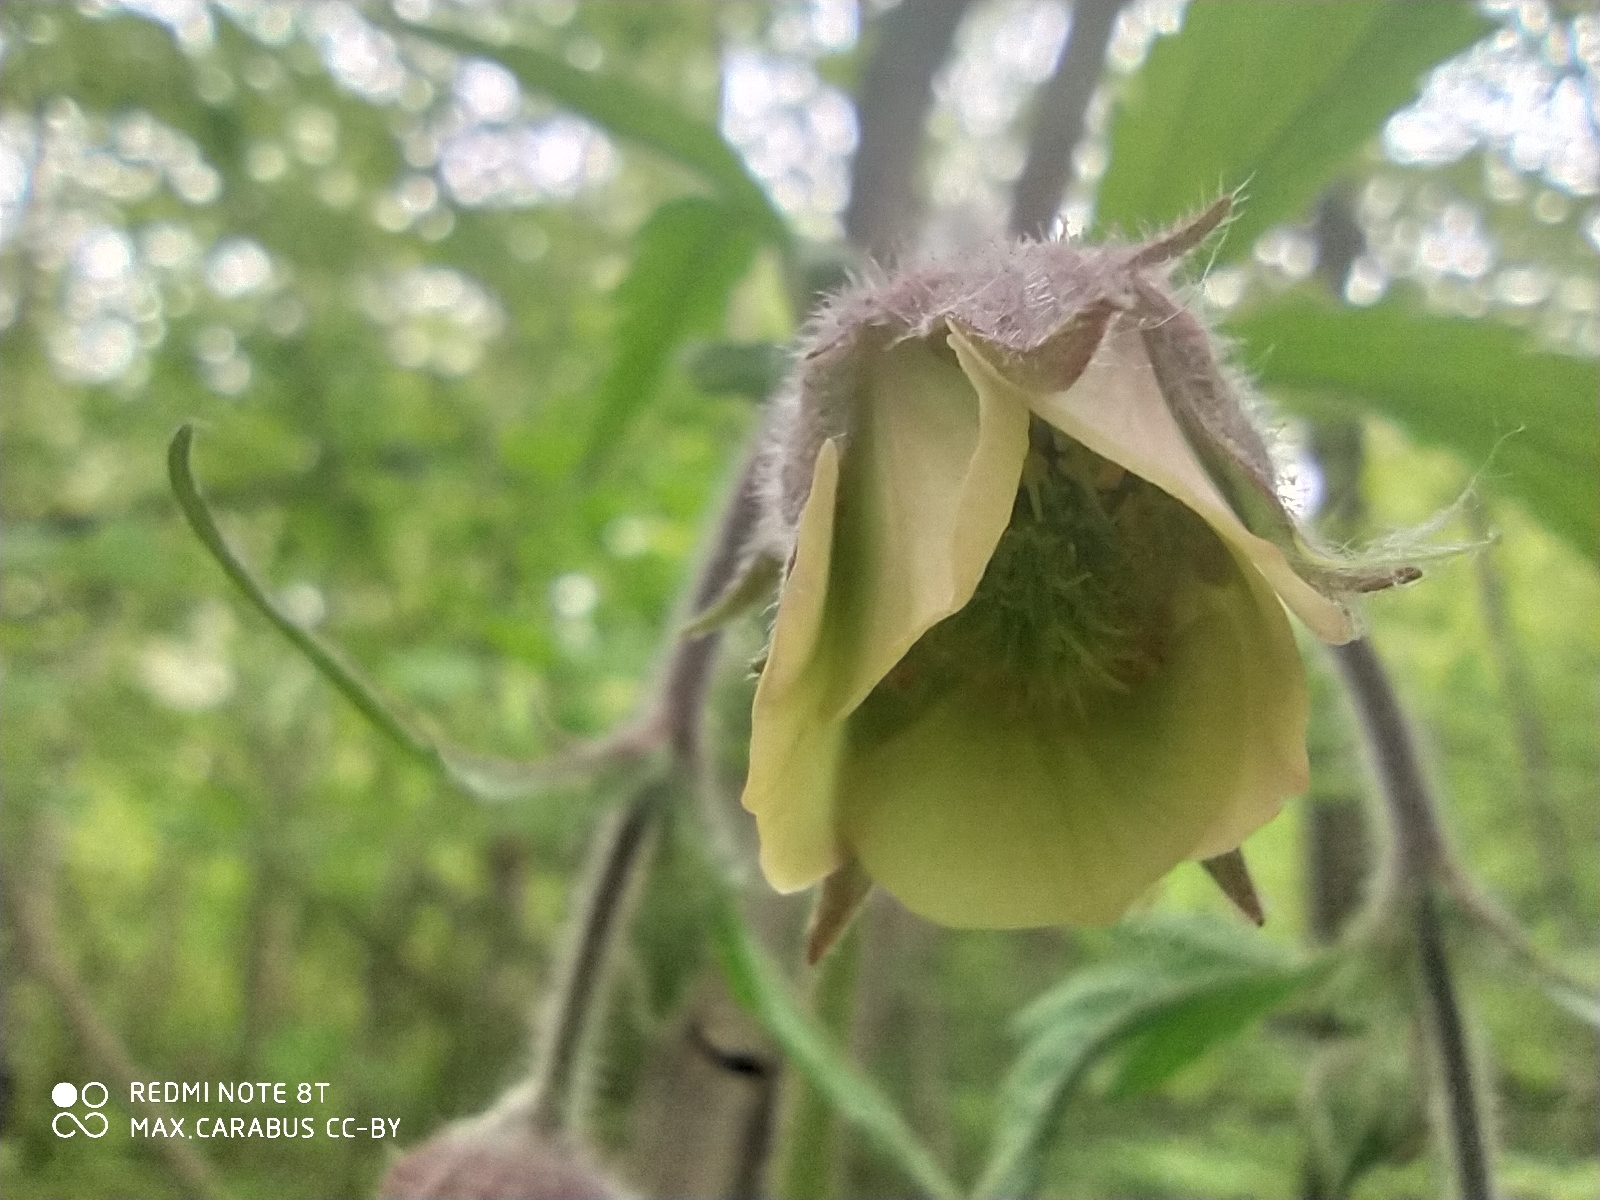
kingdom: Plantae
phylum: Tracheophyta
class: Magnoliopsida
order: Rosales
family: Rosaceae
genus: Geum
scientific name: Geum rivale
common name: Water avens
